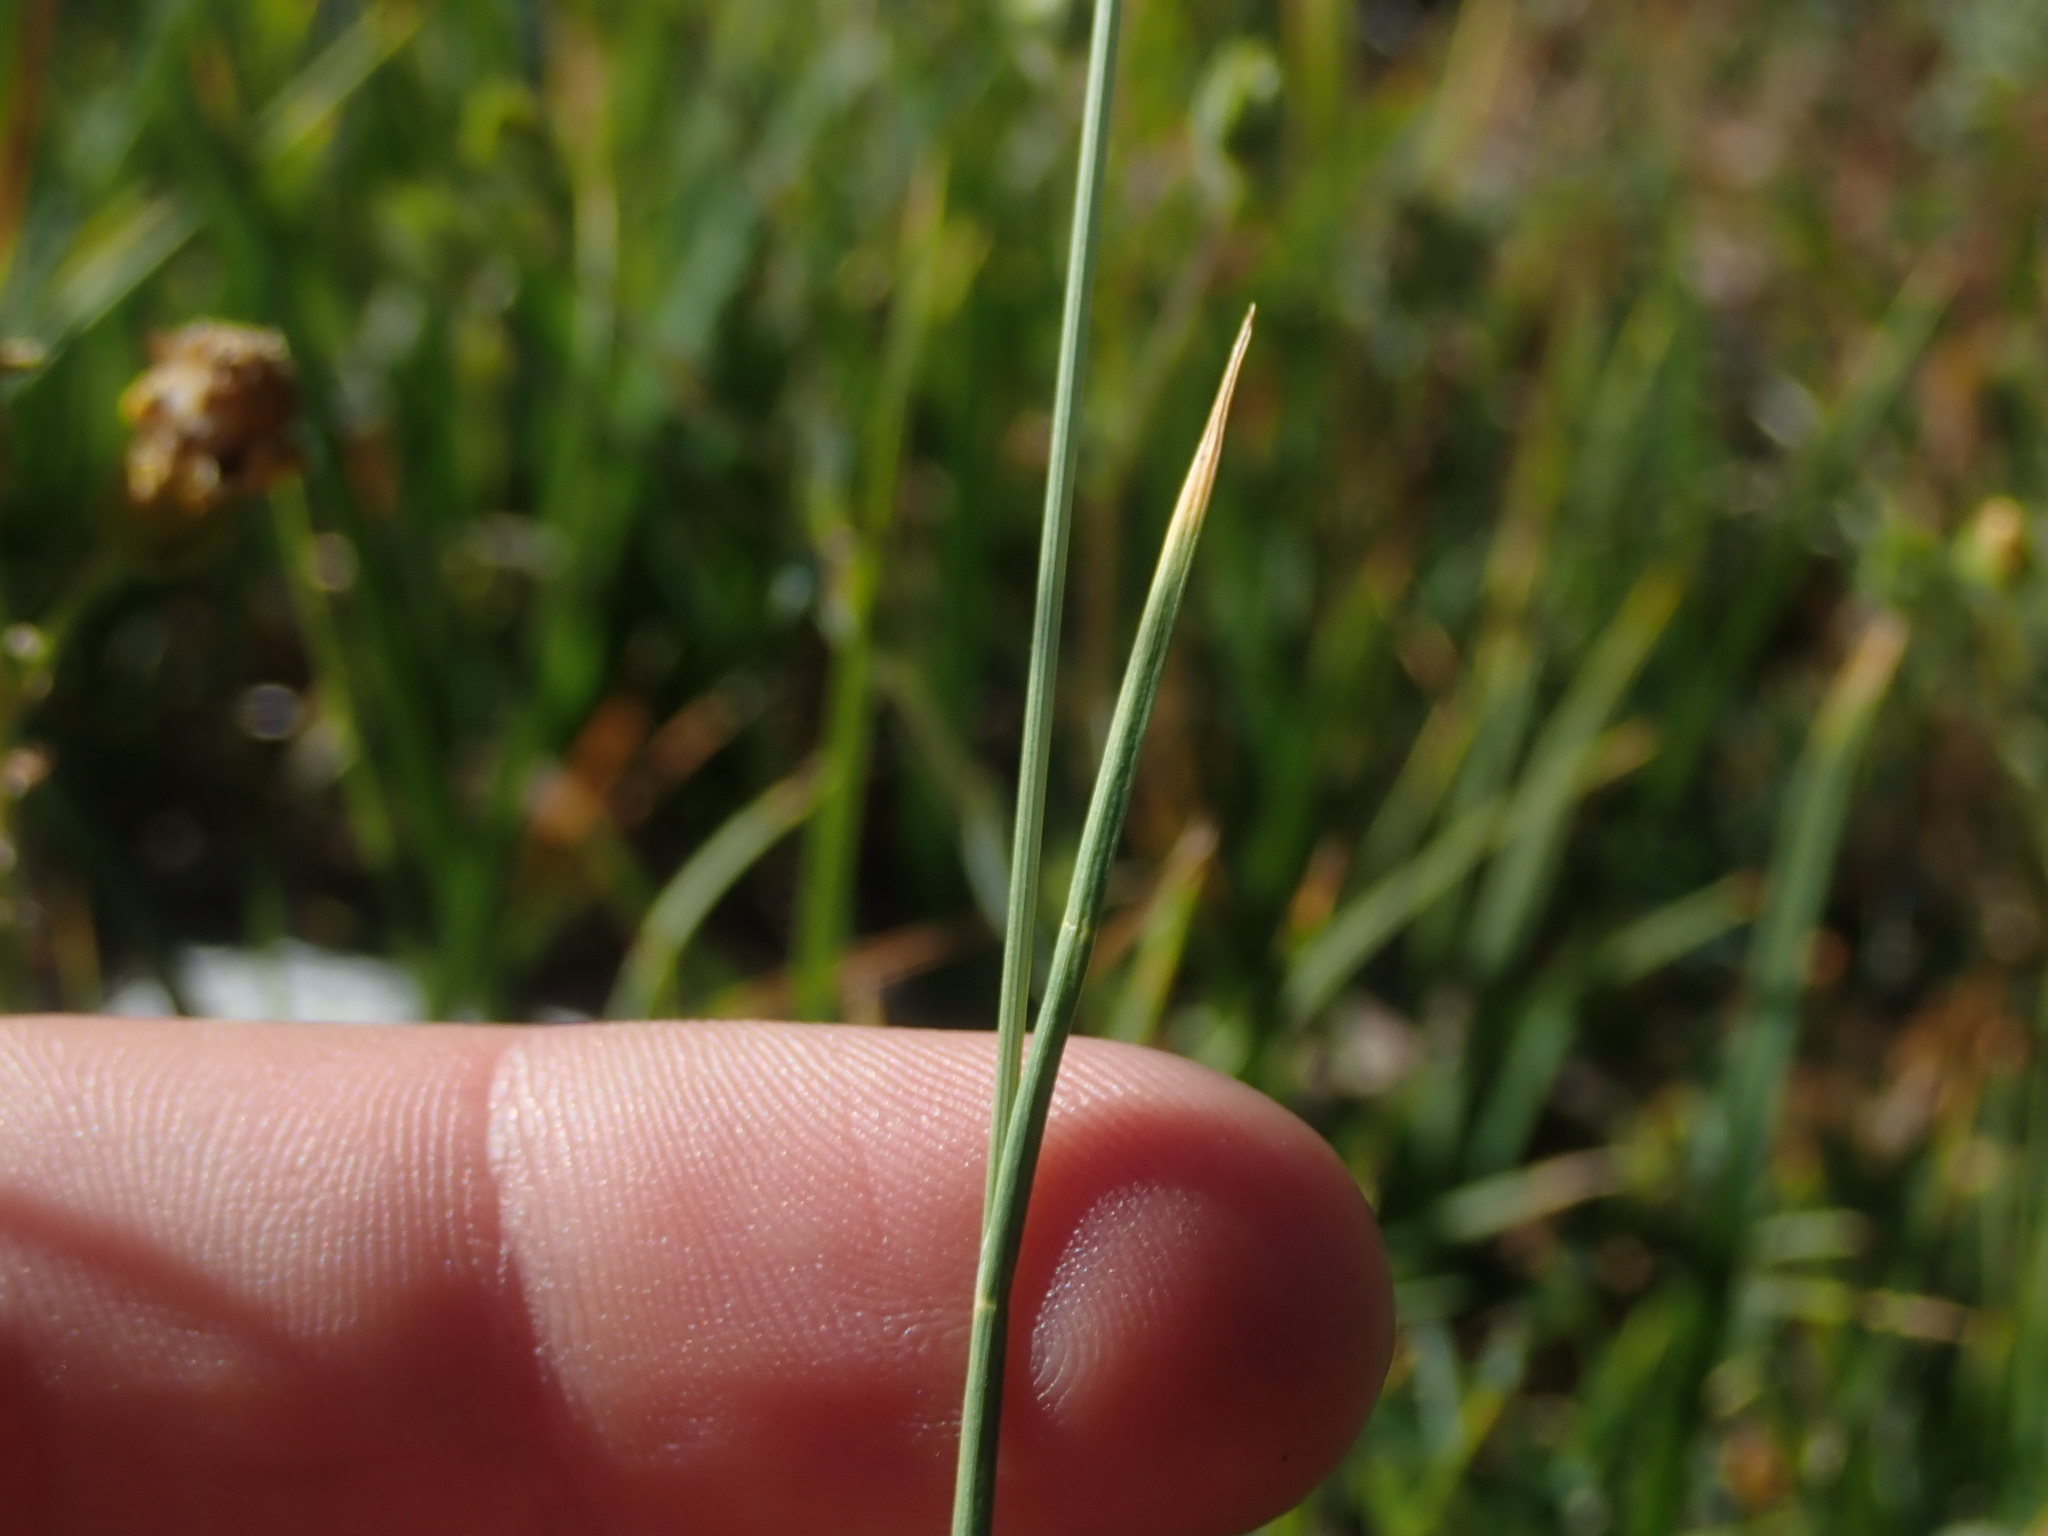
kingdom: Plantae
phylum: Tracheophyta
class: Liliopsida
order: Poales
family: Poaceae
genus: Festuca
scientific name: Festuca kingii
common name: Spike fescue
